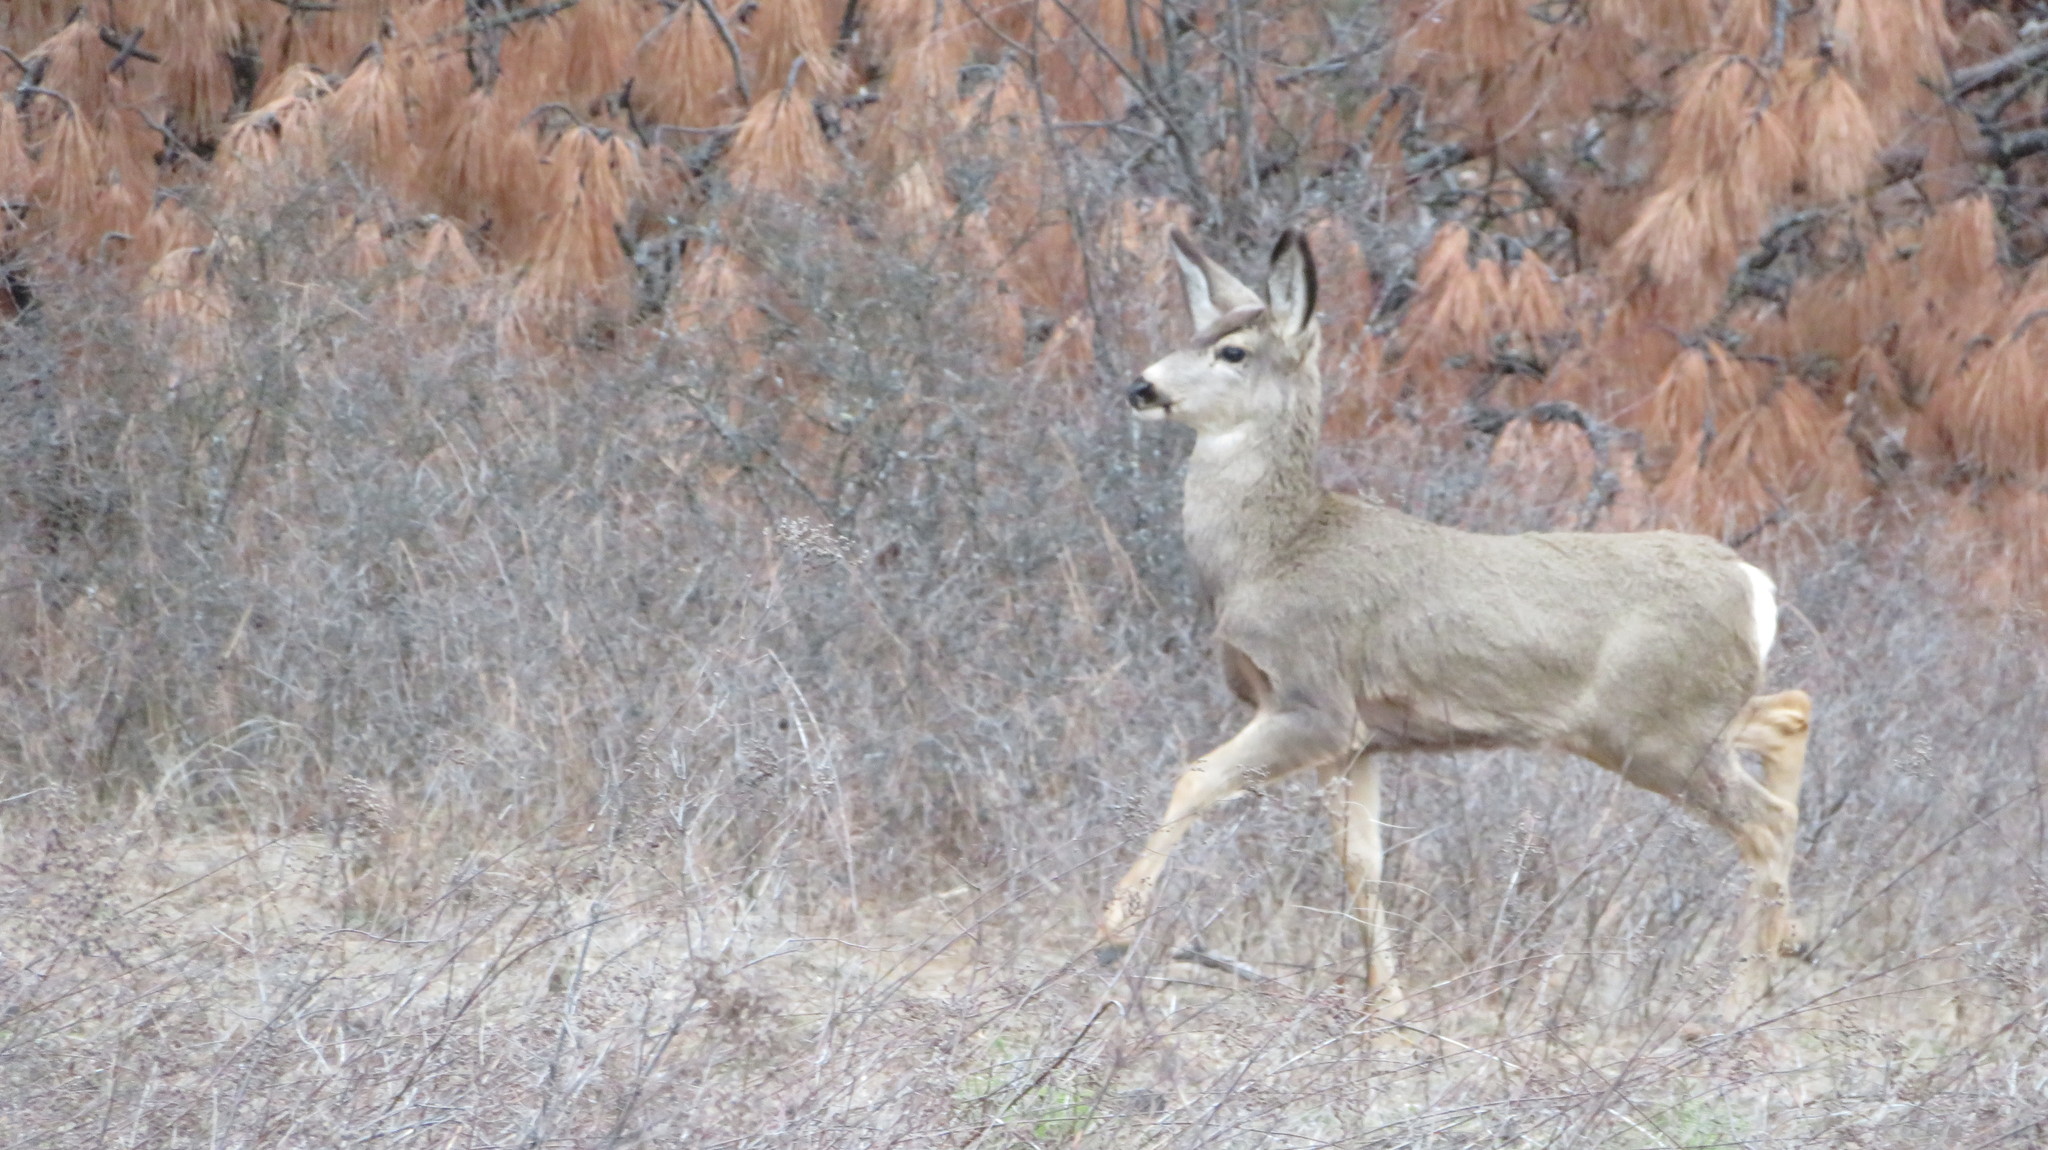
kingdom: Animalia
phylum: Chordata
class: Mammalia
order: Artiodactyla
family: Cervidae
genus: Odocoileus
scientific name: Odocoileus hemionus
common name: Mule deer
